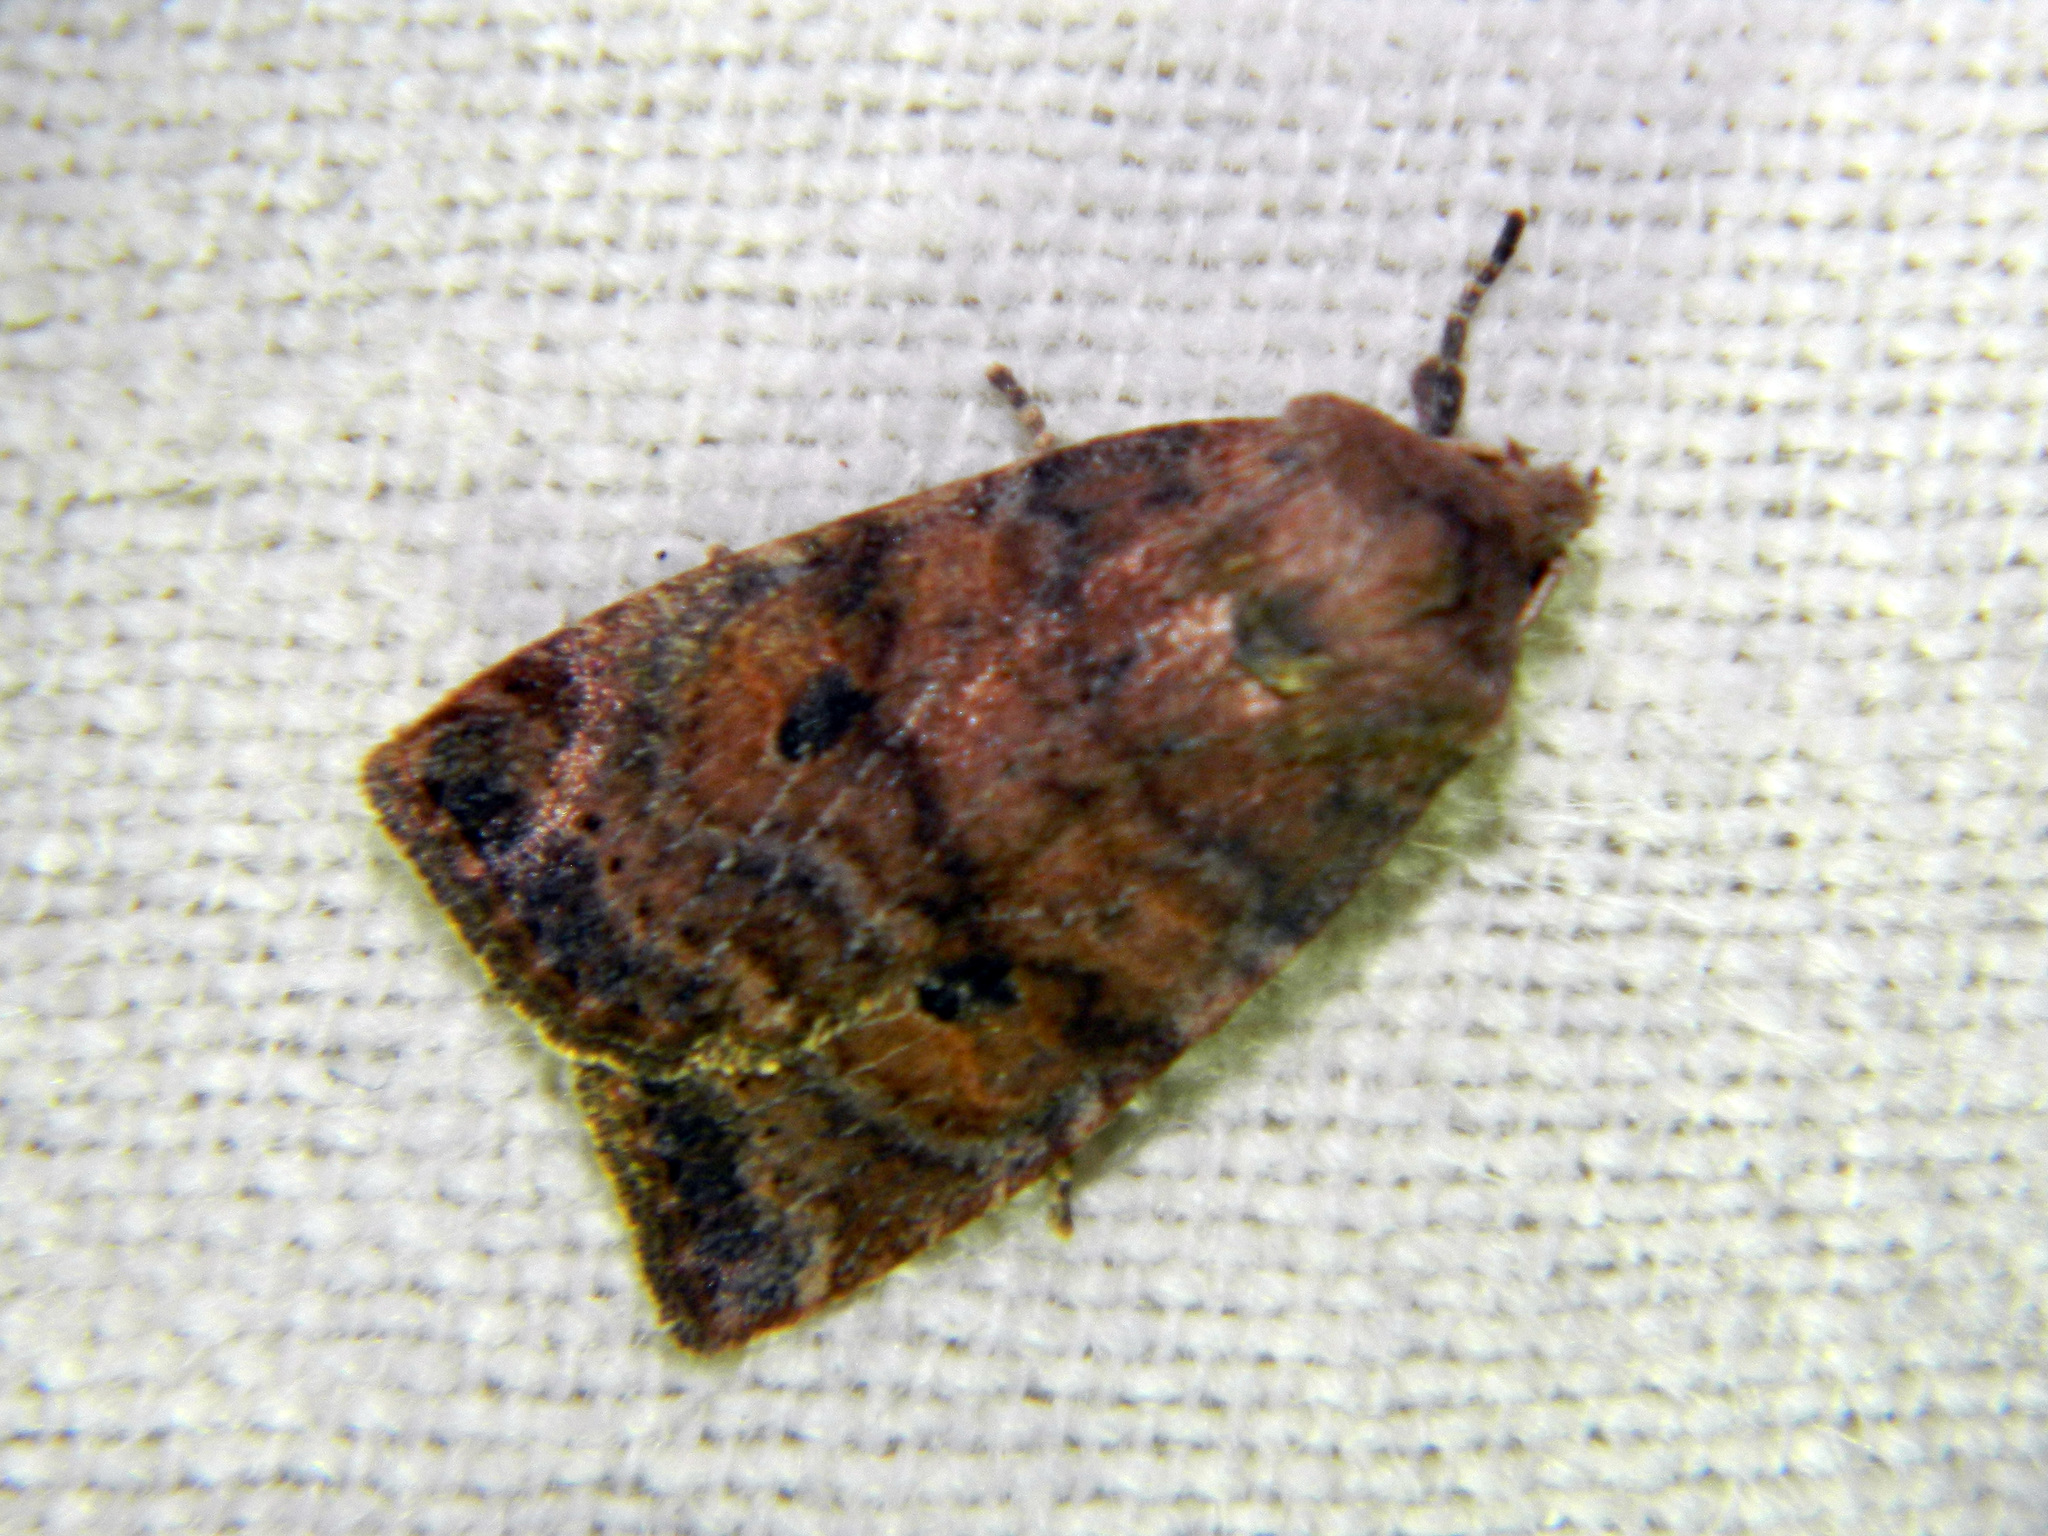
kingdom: Animalia
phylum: Arthropoda
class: Insecta
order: Lepidoptera
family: Noctuidae
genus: Anathix
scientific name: Anathix puta
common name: Puta sallow
